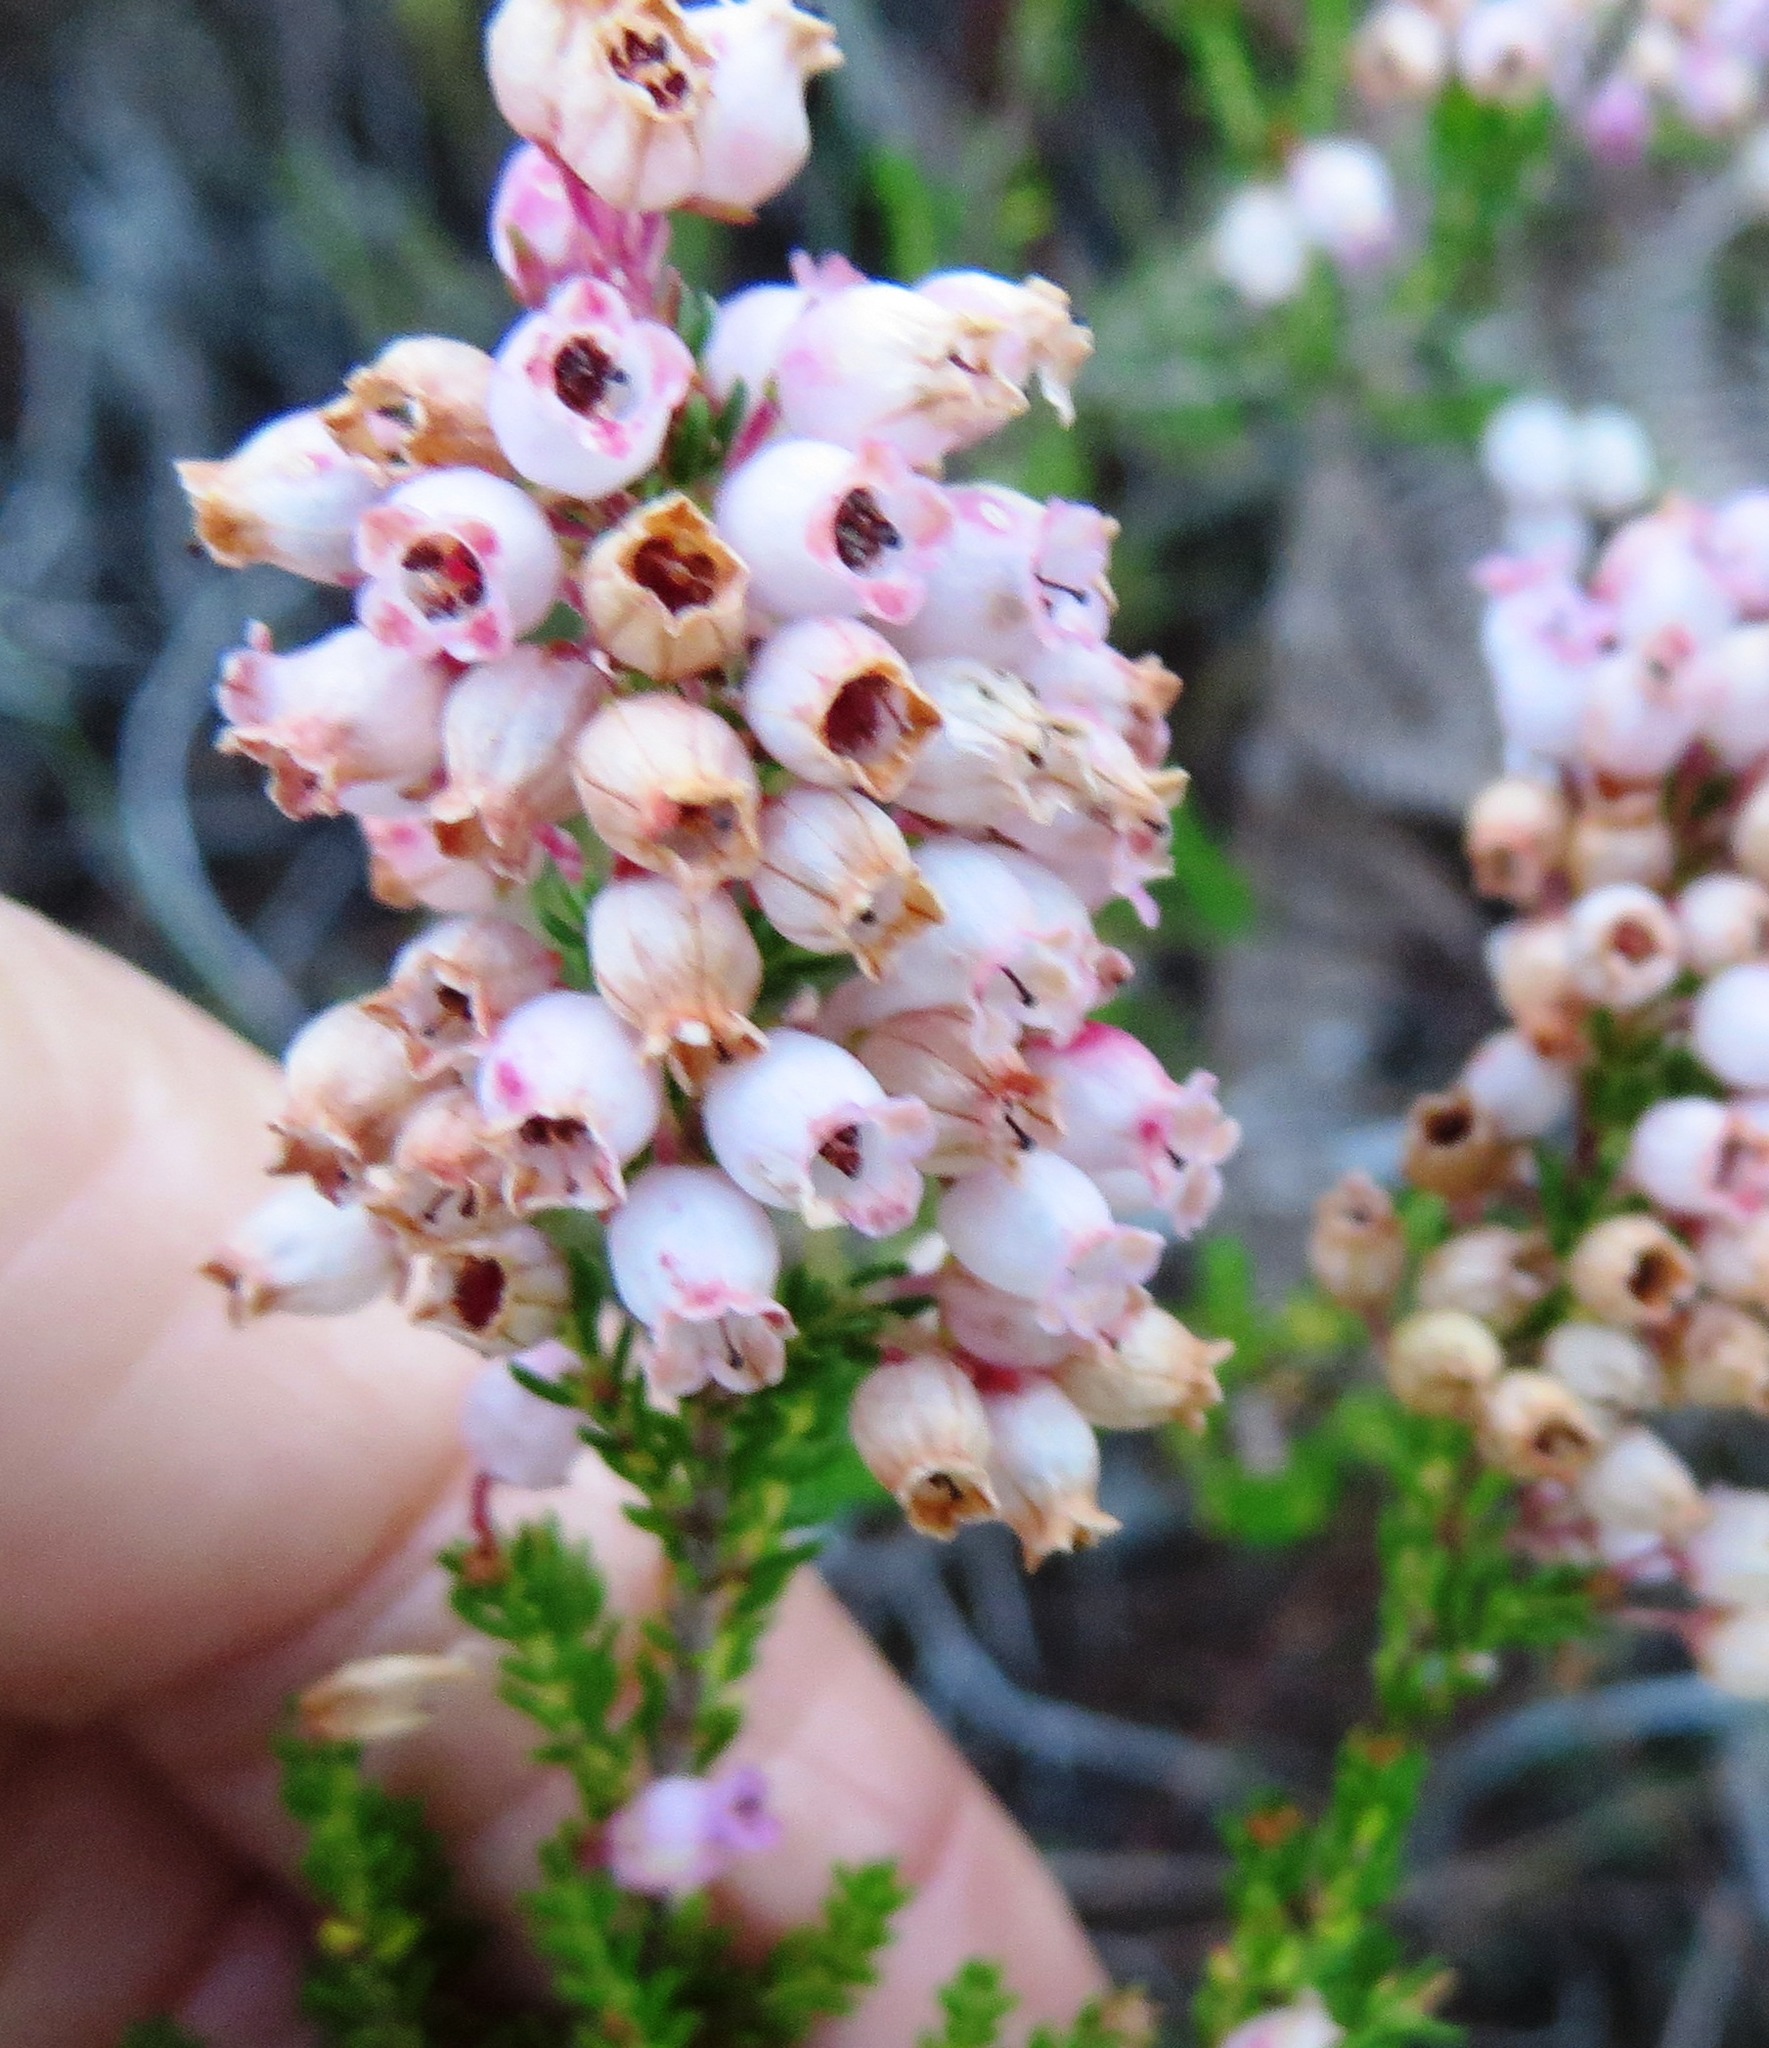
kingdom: Plantae
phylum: Tracheophyta
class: Magnoliopsida
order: Ericales
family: Ericaceae
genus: Erica
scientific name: Erica tenella
